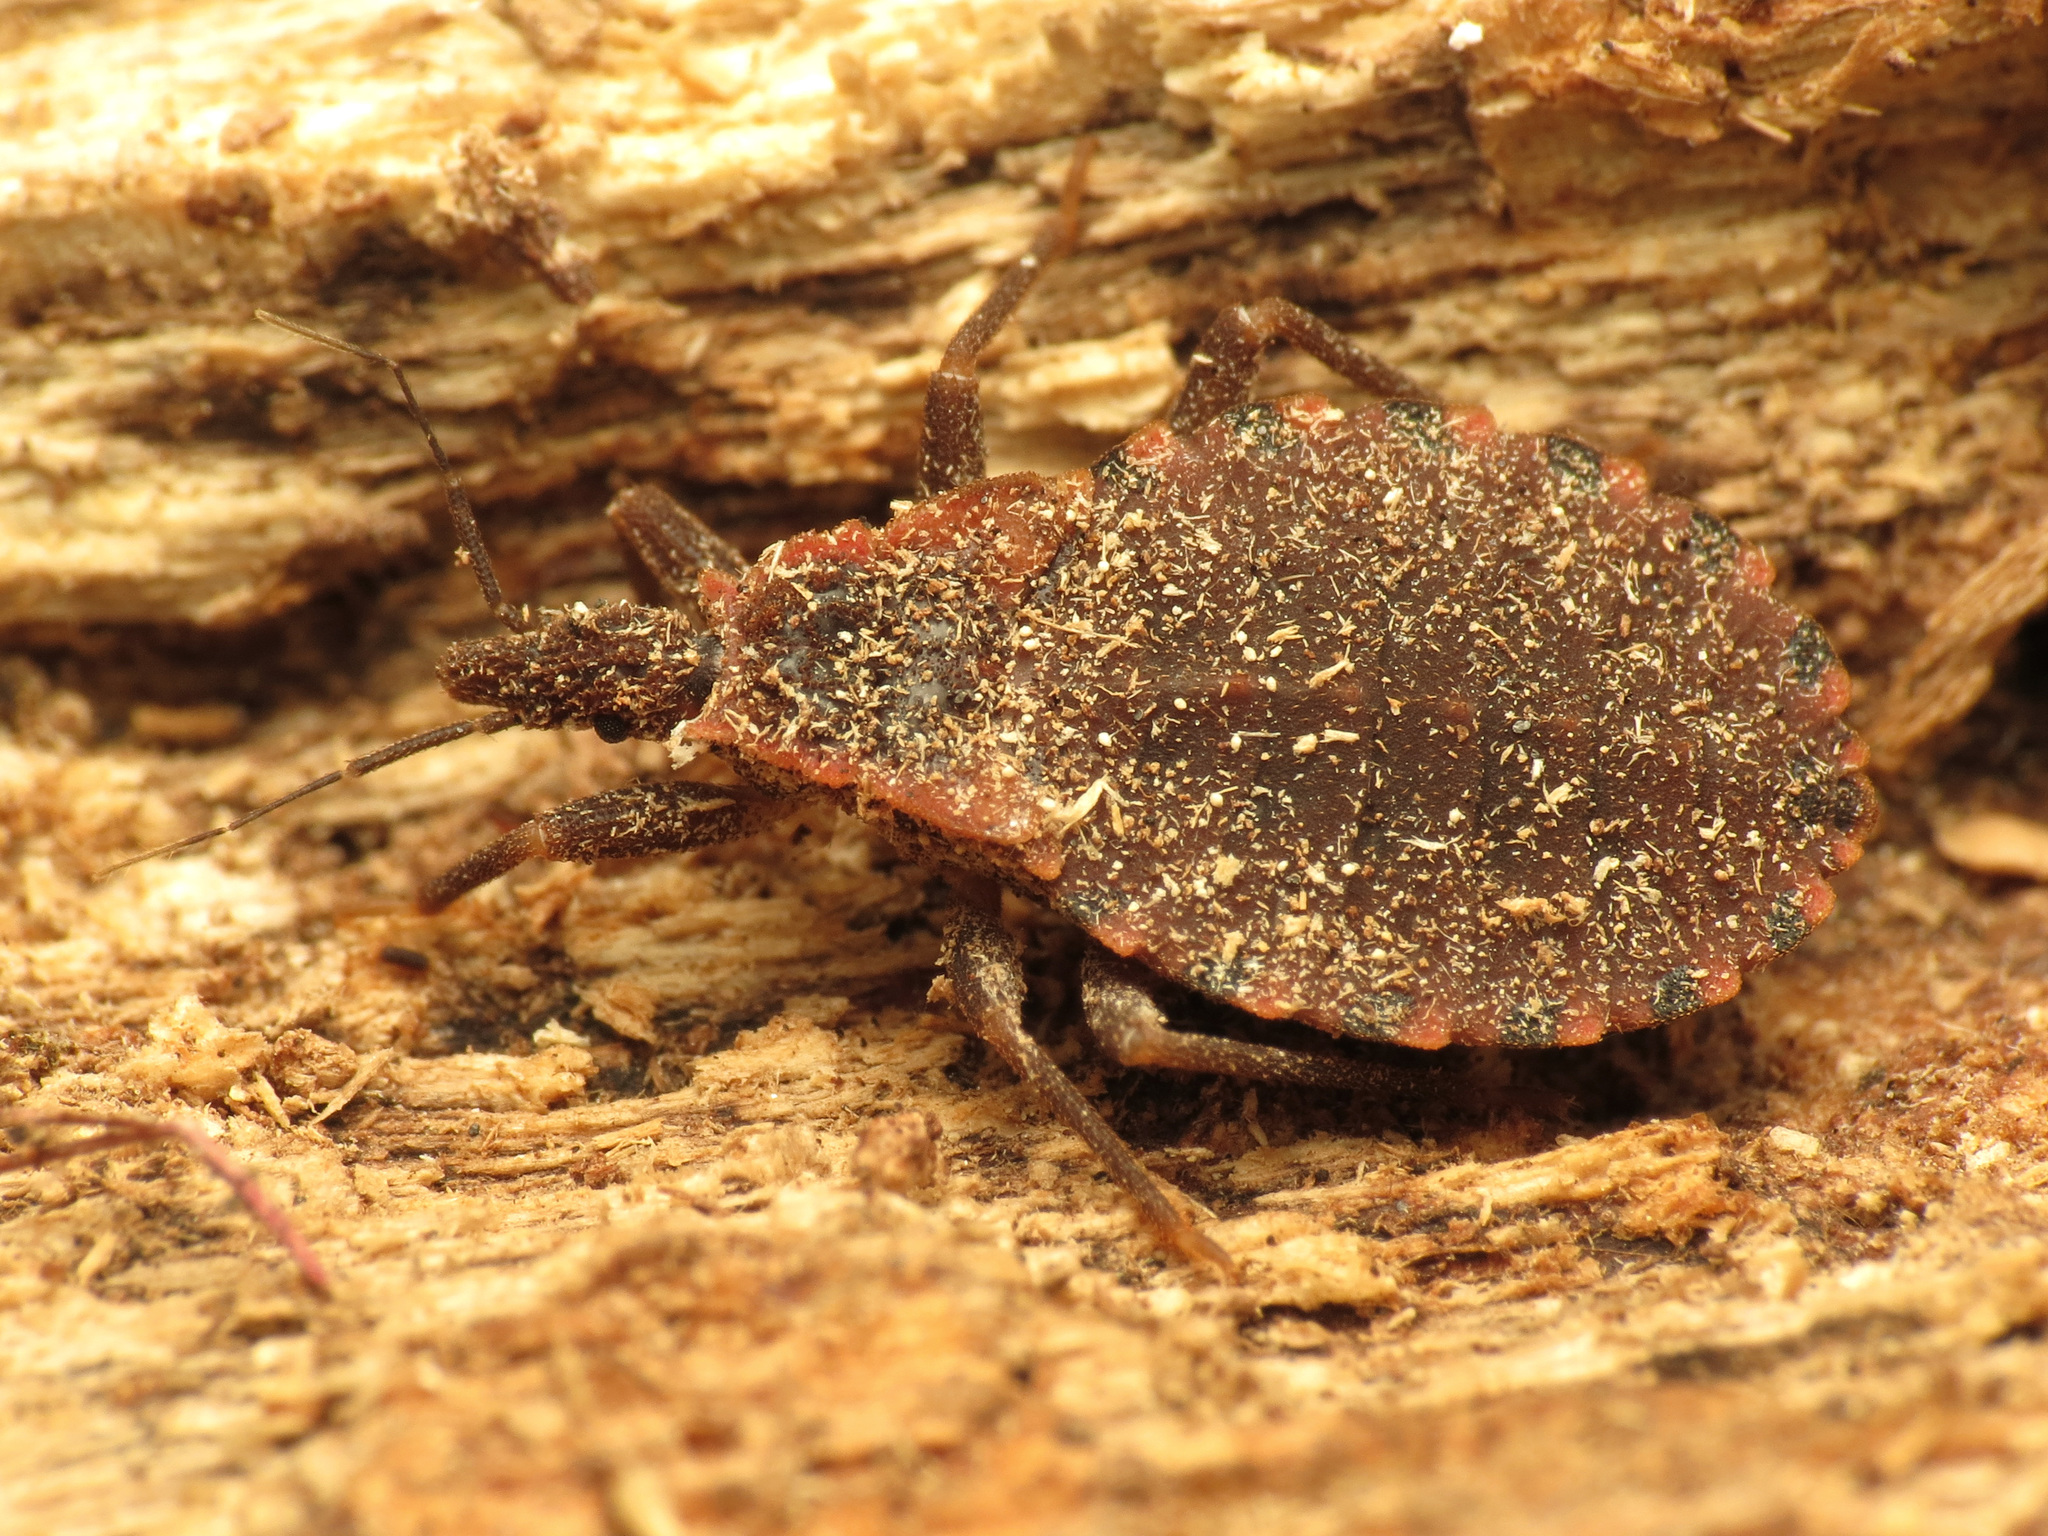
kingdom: Animalia
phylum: Arthropoda
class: Insecta
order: Hemiptera
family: Reduviidae
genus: Triatoma
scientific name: Triatoma sanguisuga
